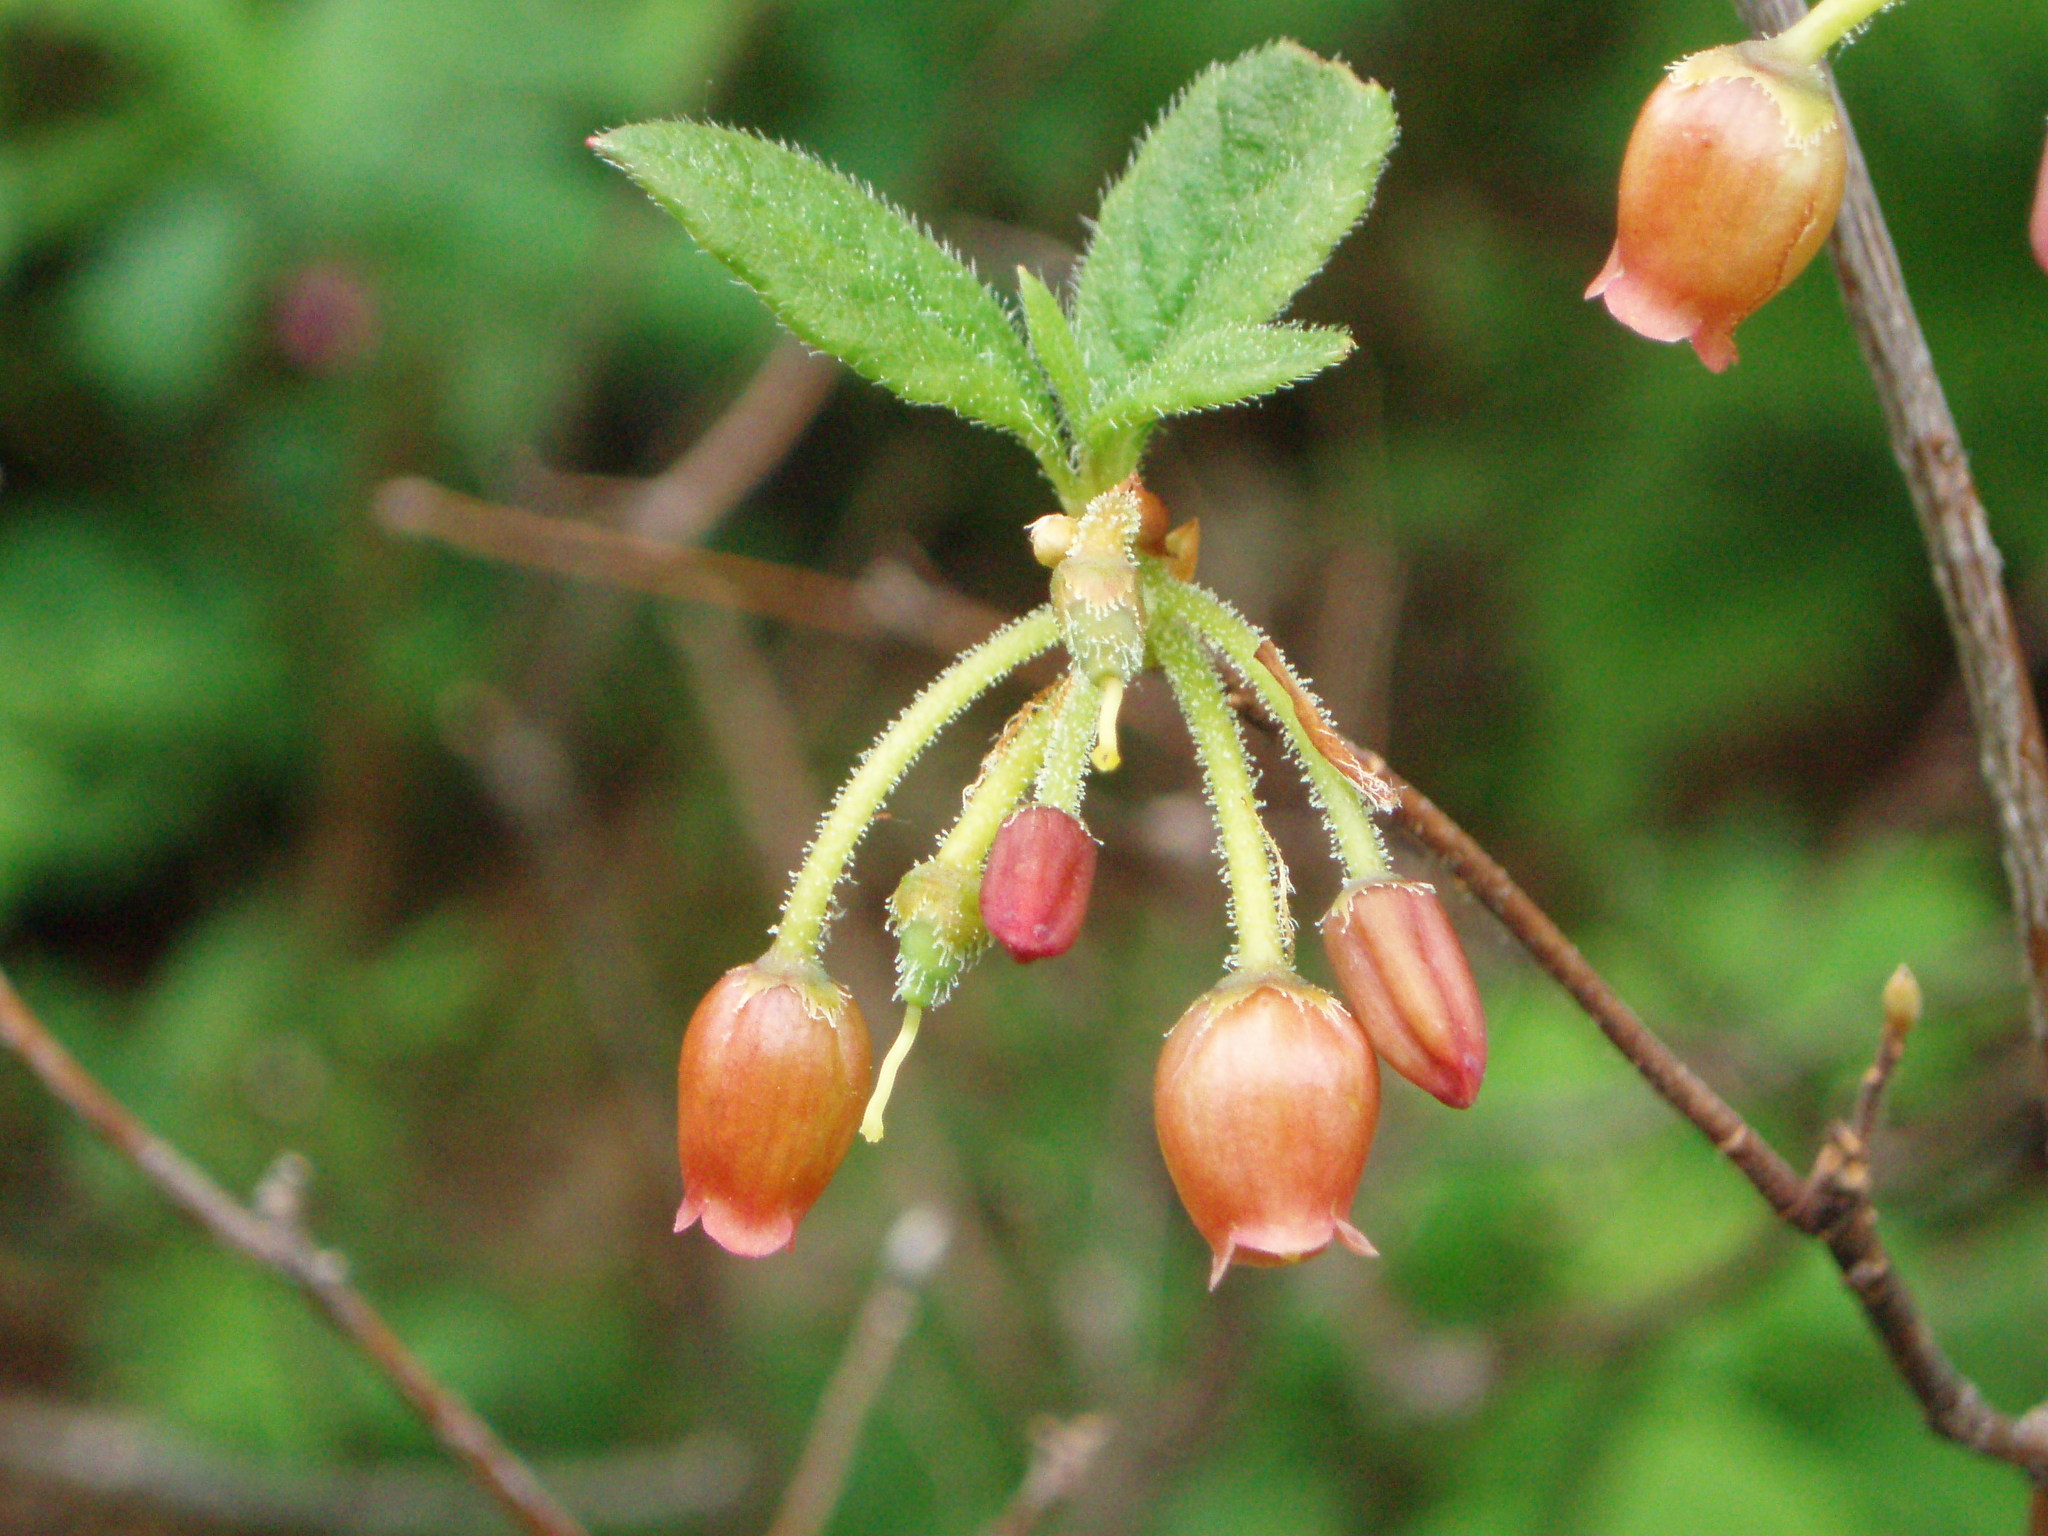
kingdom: Plantae
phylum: Tracheophyta
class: Magnoliopsida
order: Ericales
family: Ericaceae
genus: Rhododendron
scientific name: Rhododendron menziesii
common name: Pacific menziesia
